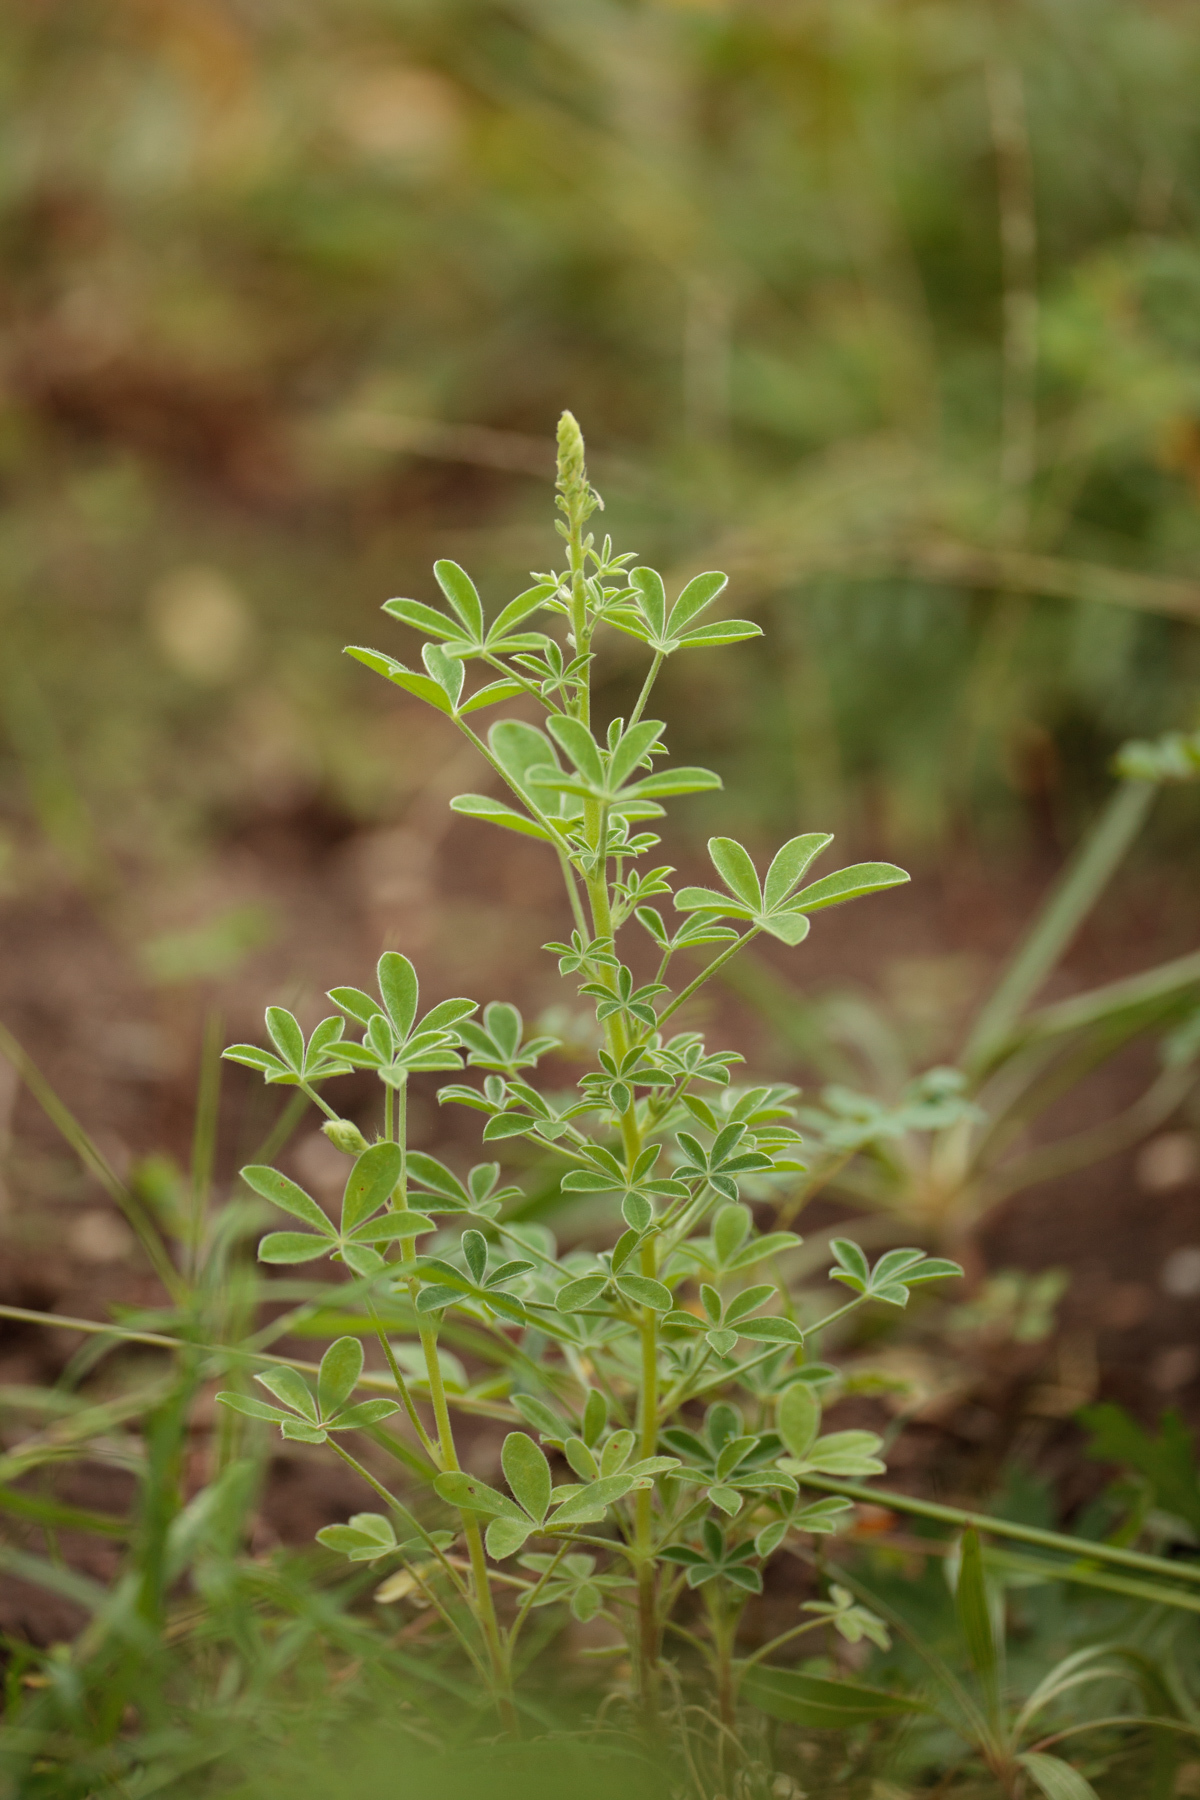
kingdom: Plantae
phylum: Tracheophyta
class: Magnoliopsida
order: Fabales
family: Fabaceae
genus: Lupinus
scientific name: Lupinus texensis
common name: Texas bluebonnet
